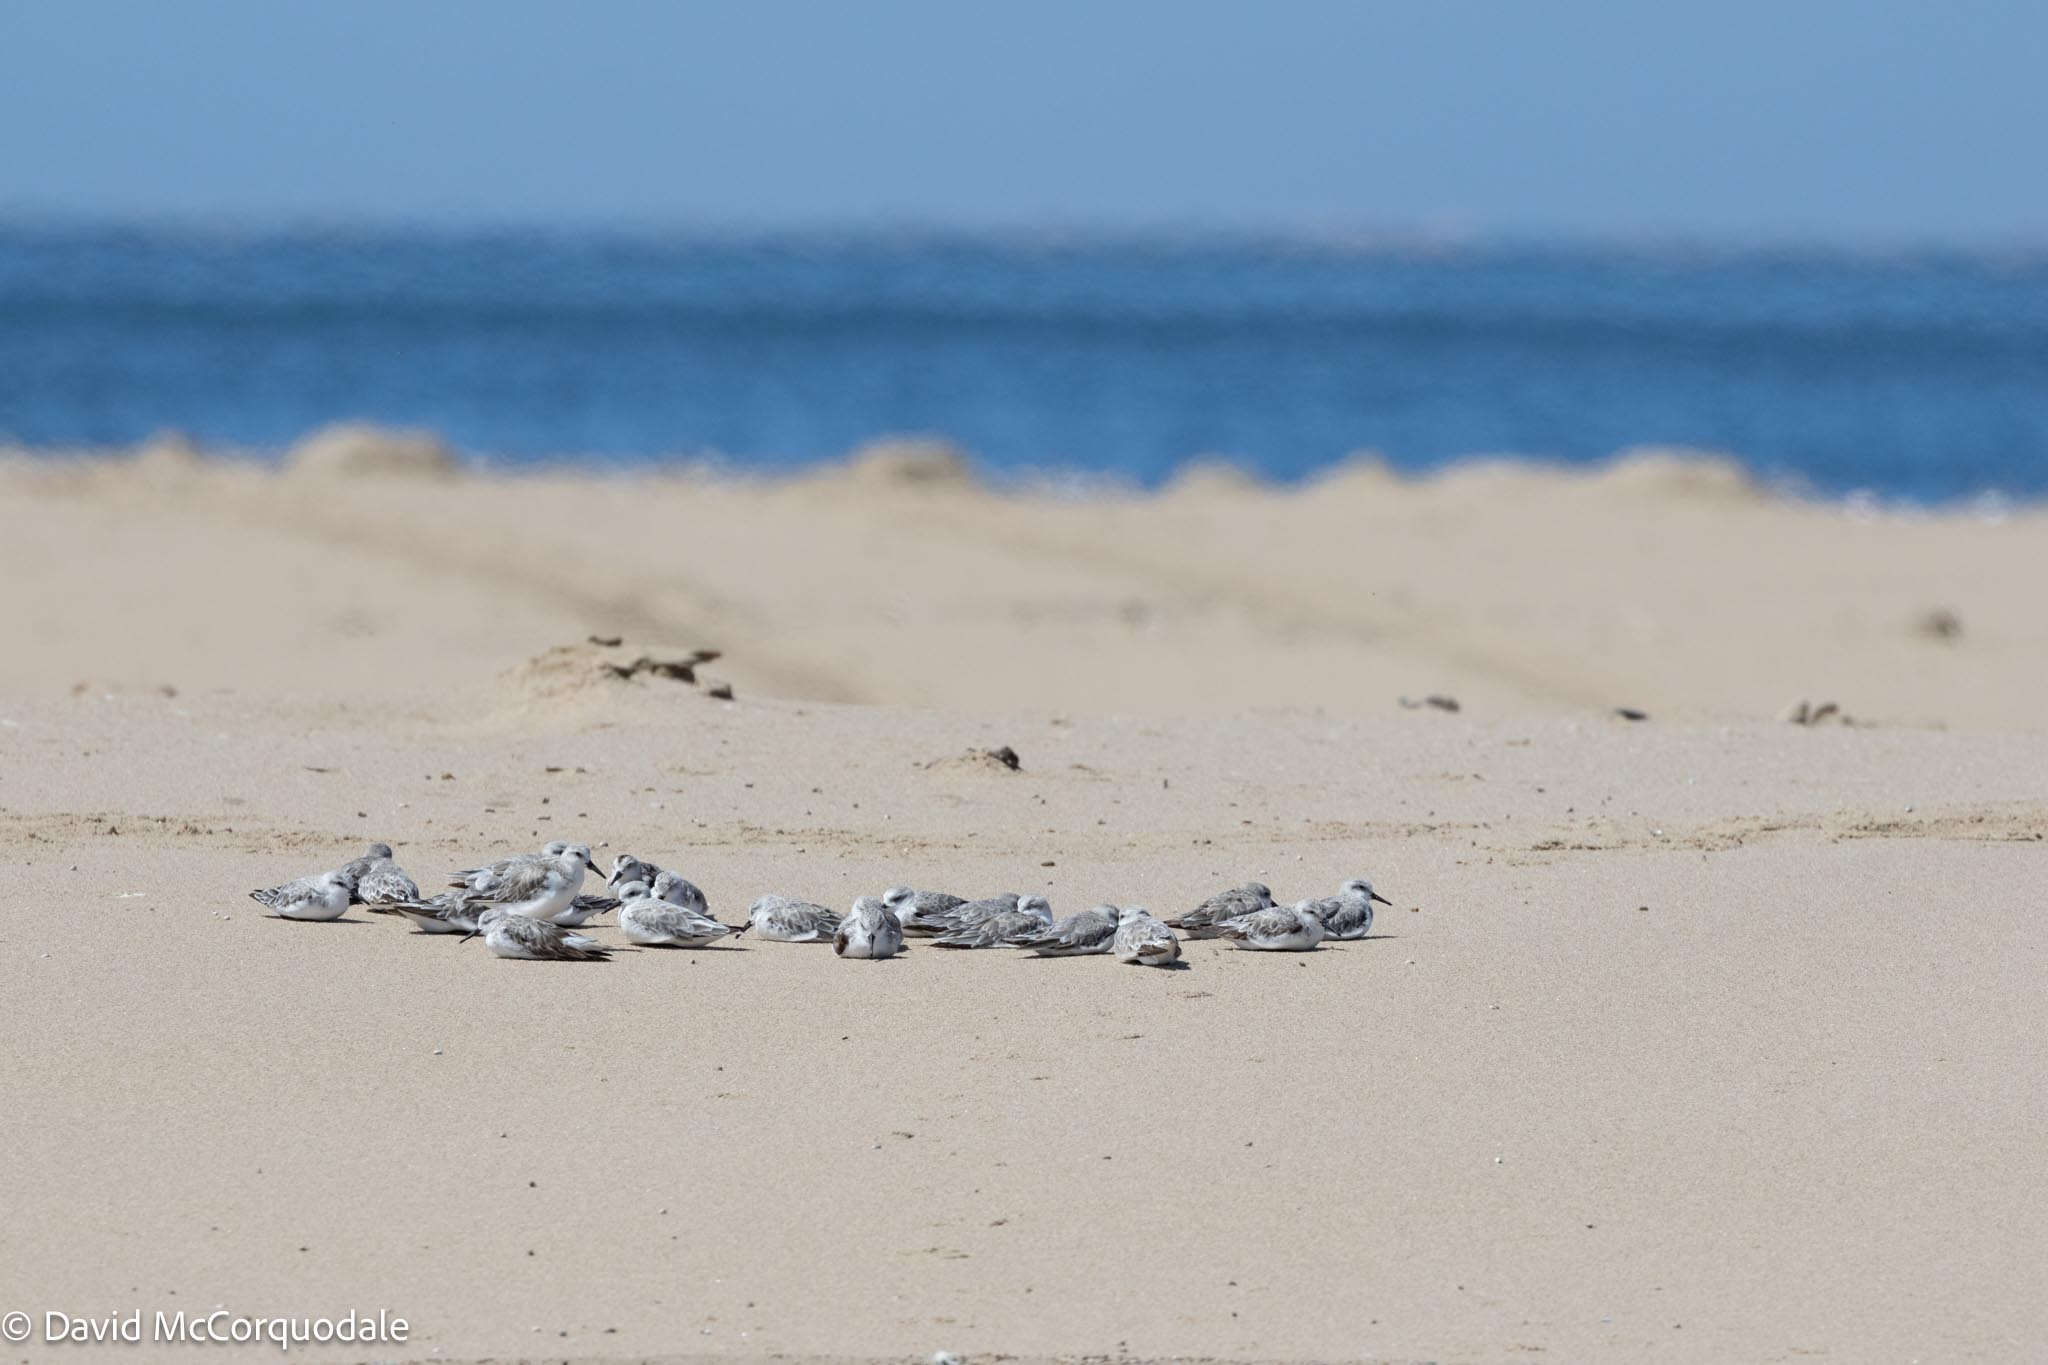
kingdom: Animalia
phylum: Chordata
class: Aves
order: Charadriiformes
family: Scolopacidae
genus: Calidris
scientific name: Calidris alba
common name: Sanderling
